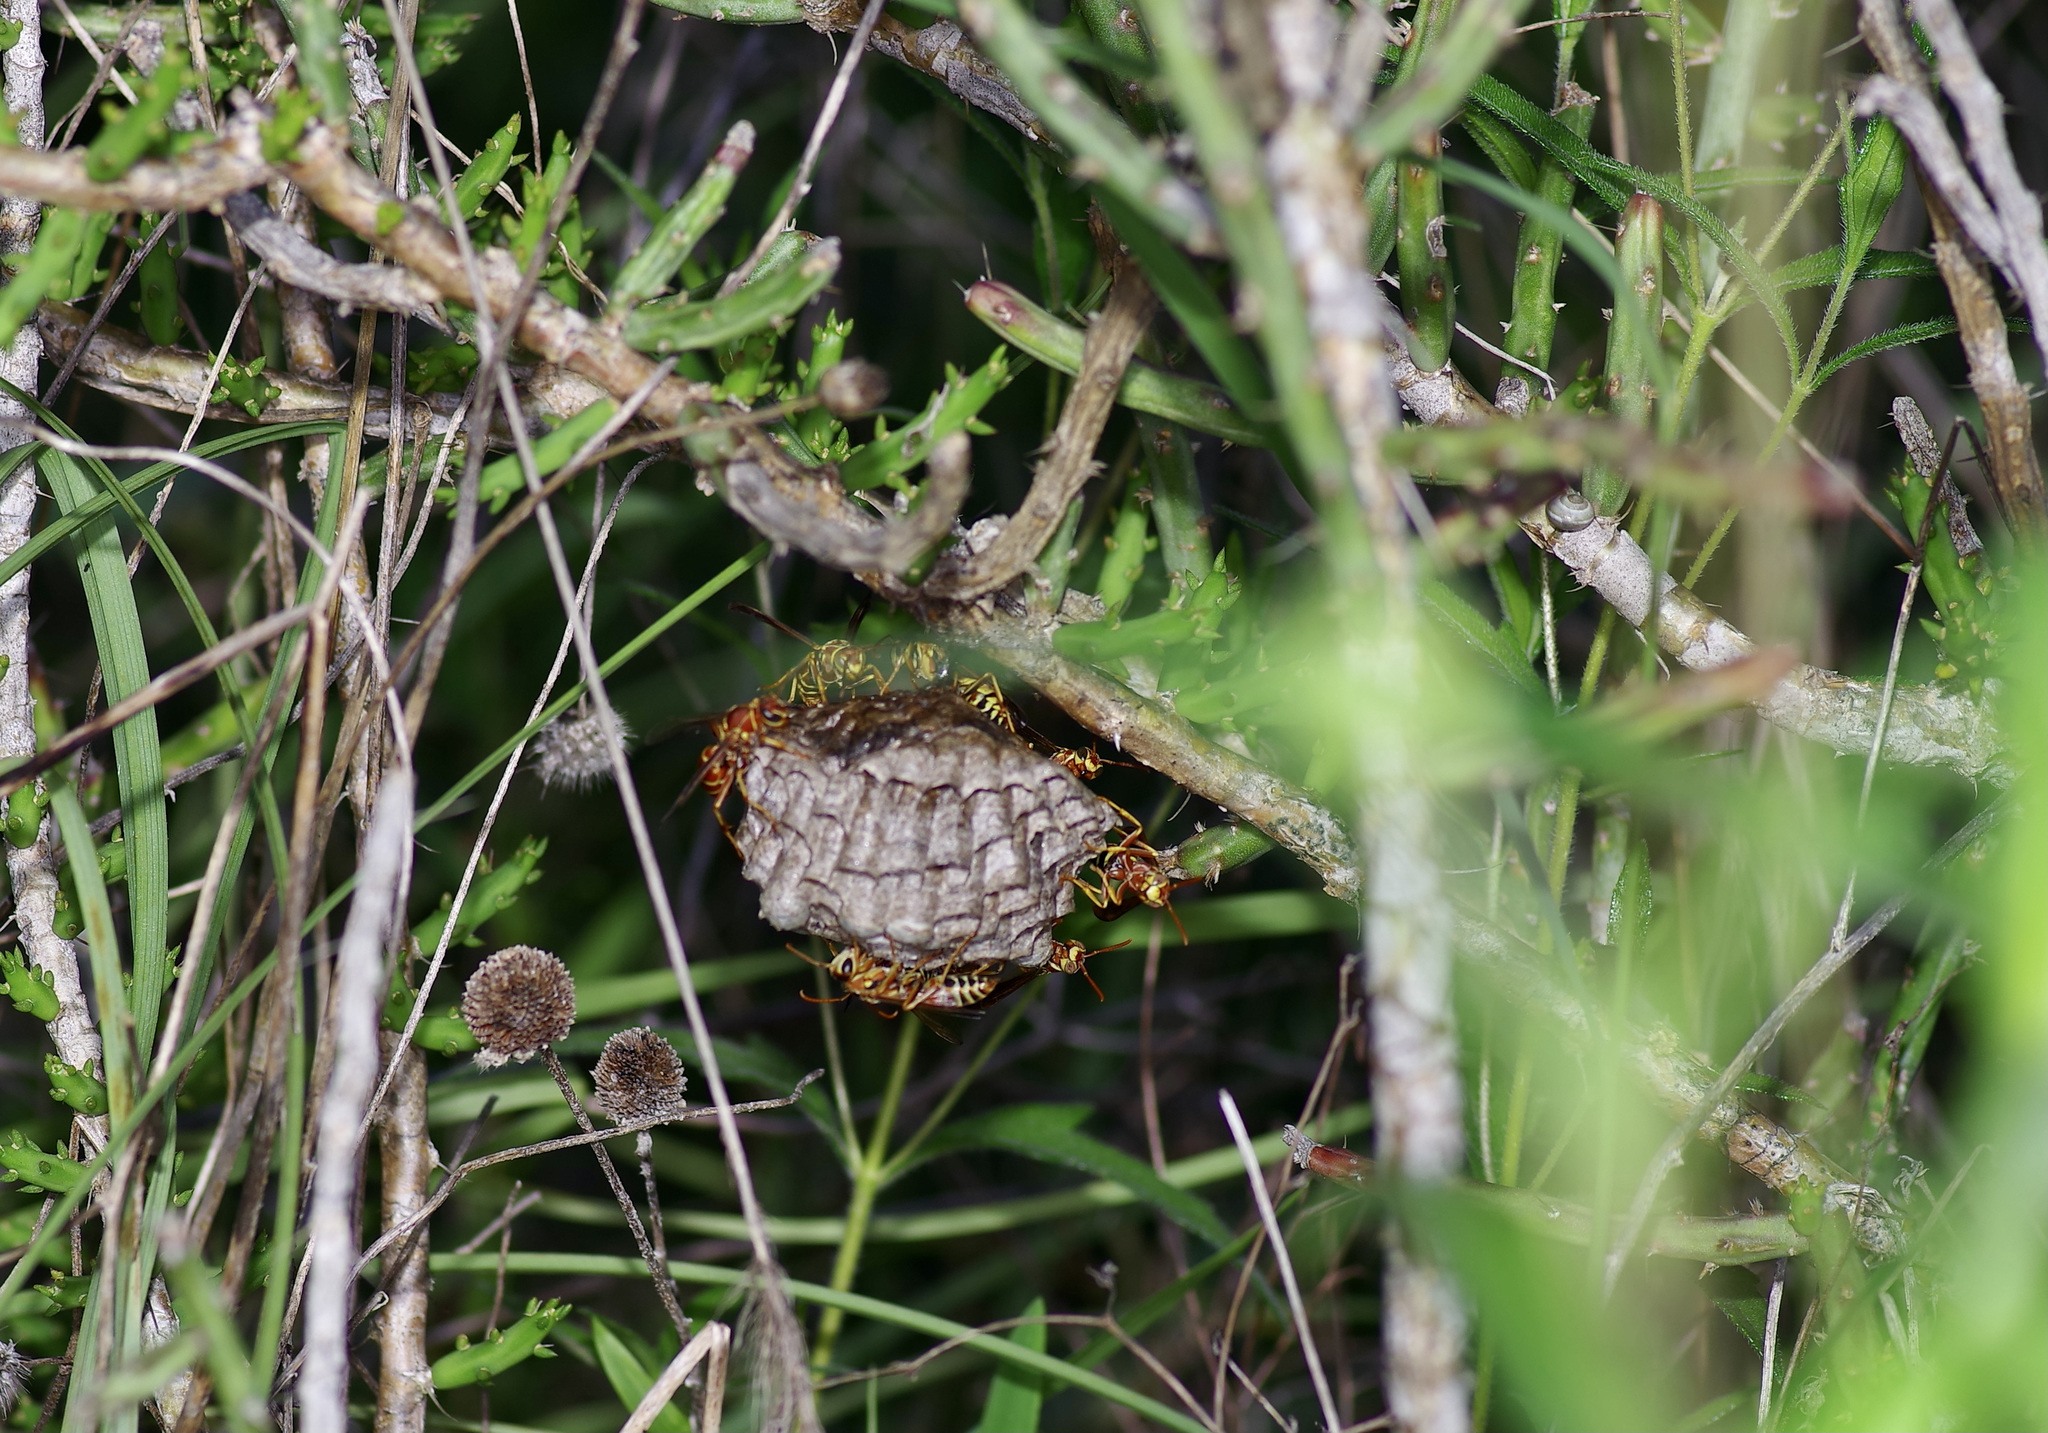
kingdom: Animalia
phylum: Arthropoda
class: Insecta
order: Hymenoptera
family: Eumenidae
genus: Polistes
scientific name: Polistes dorsalis
